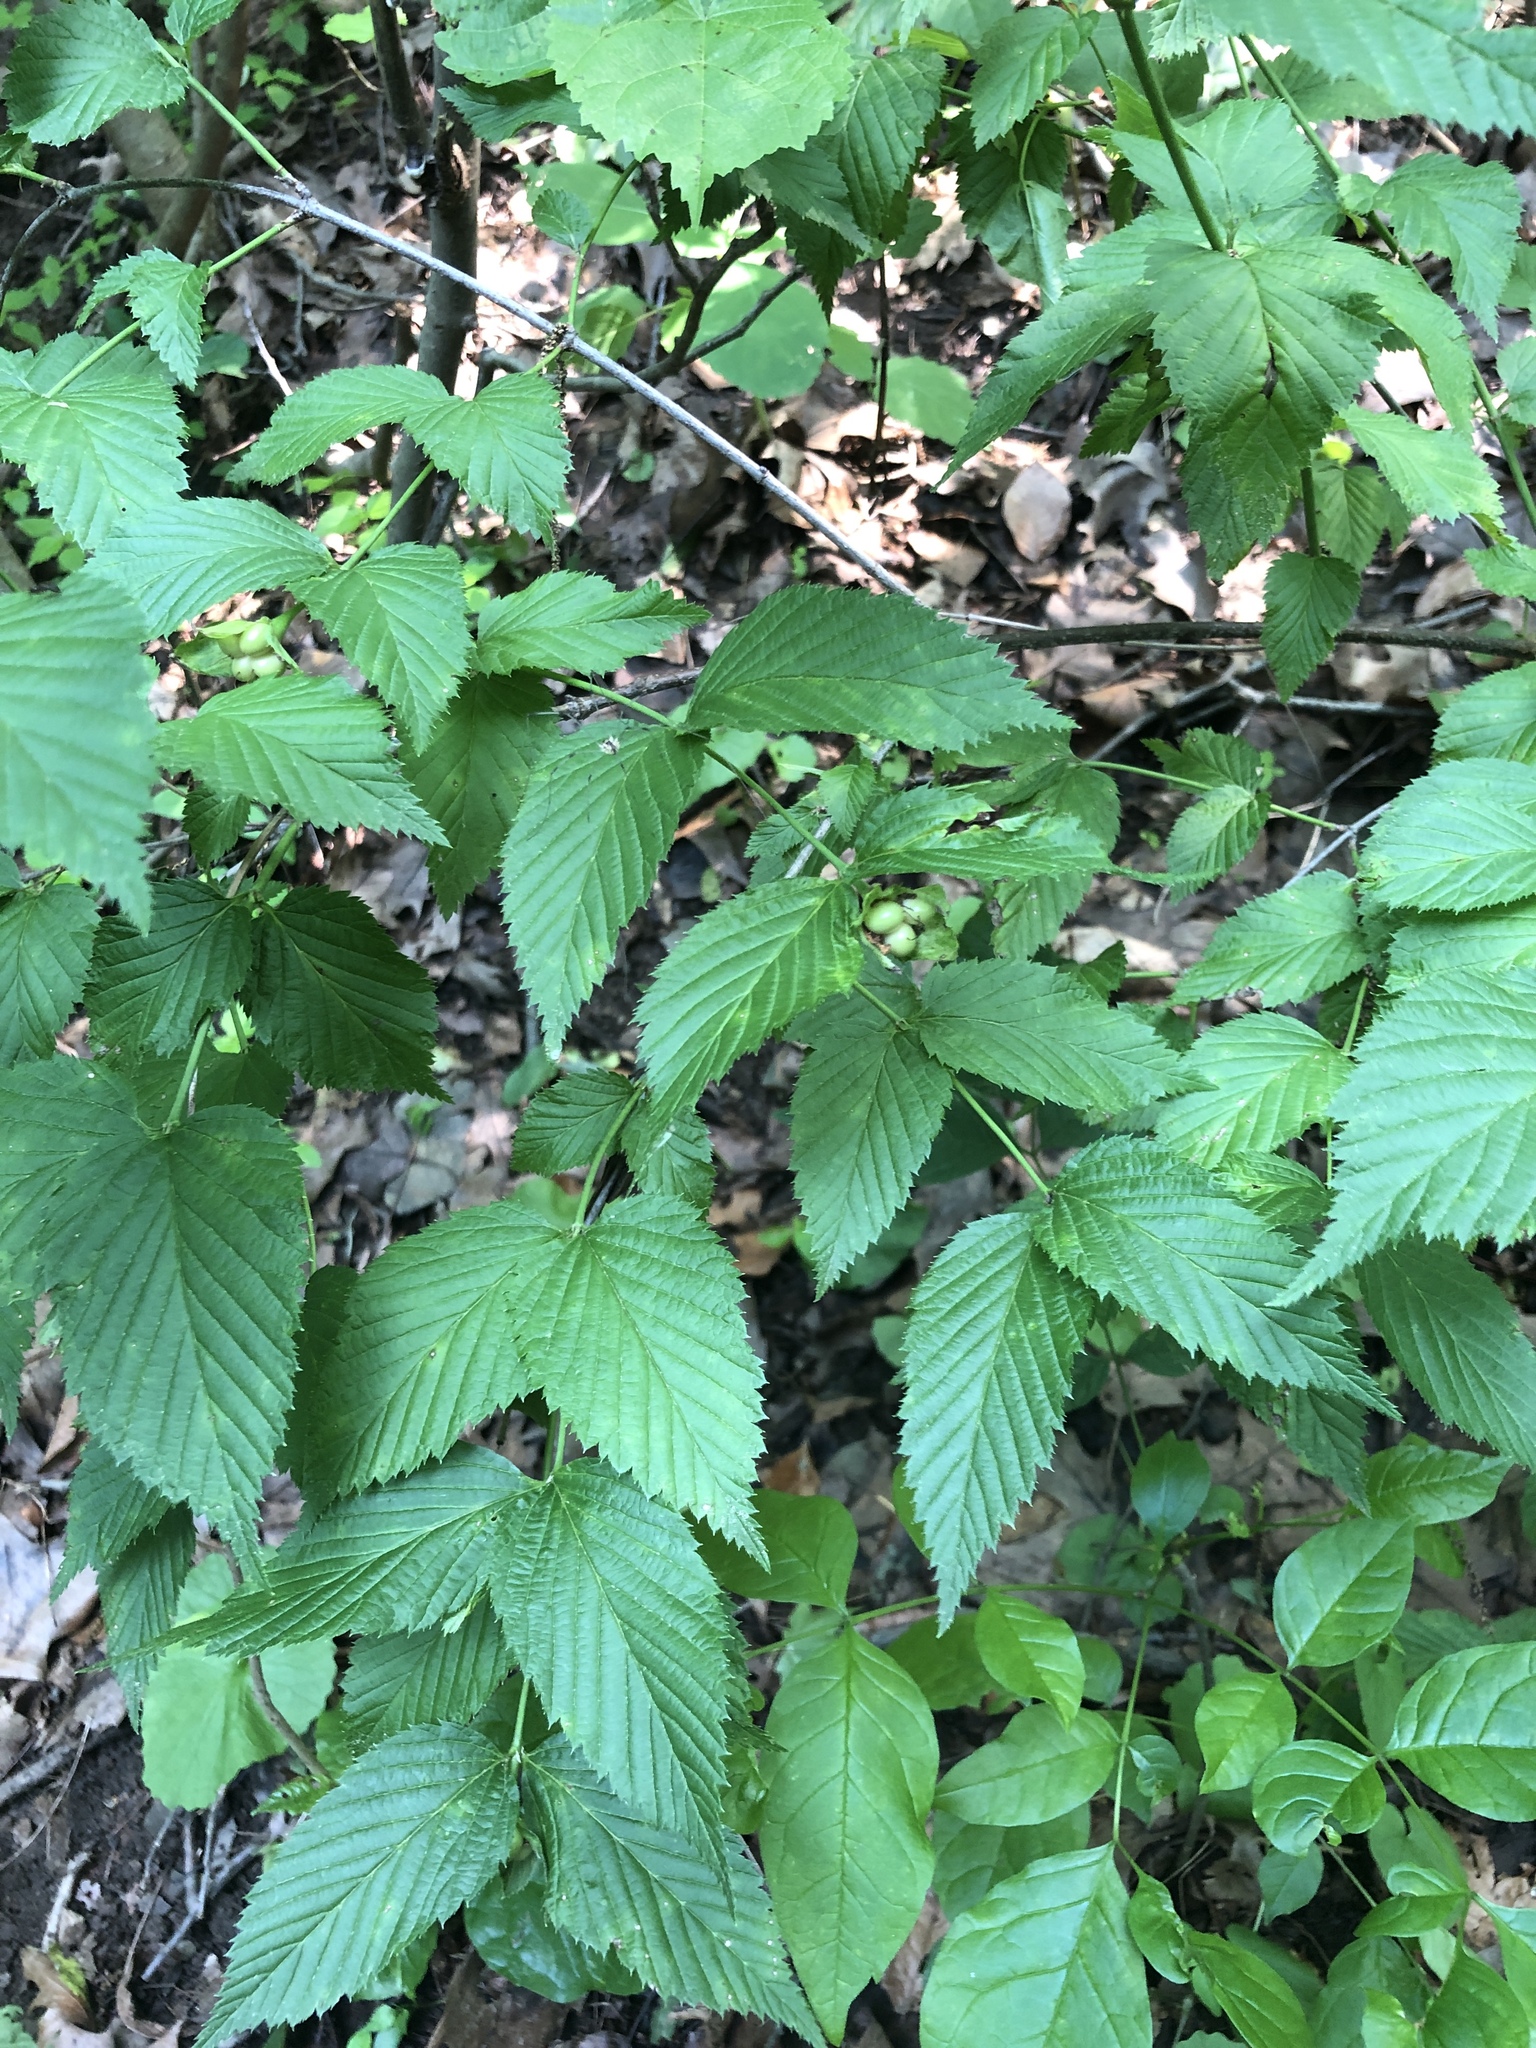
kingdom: Plantae
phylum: Tracheophyta
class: Magnoliopsida
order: Rosales
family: Rosaceae
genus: Rhodotypos
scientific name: Rhodotypos scandens
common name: Jetbead
